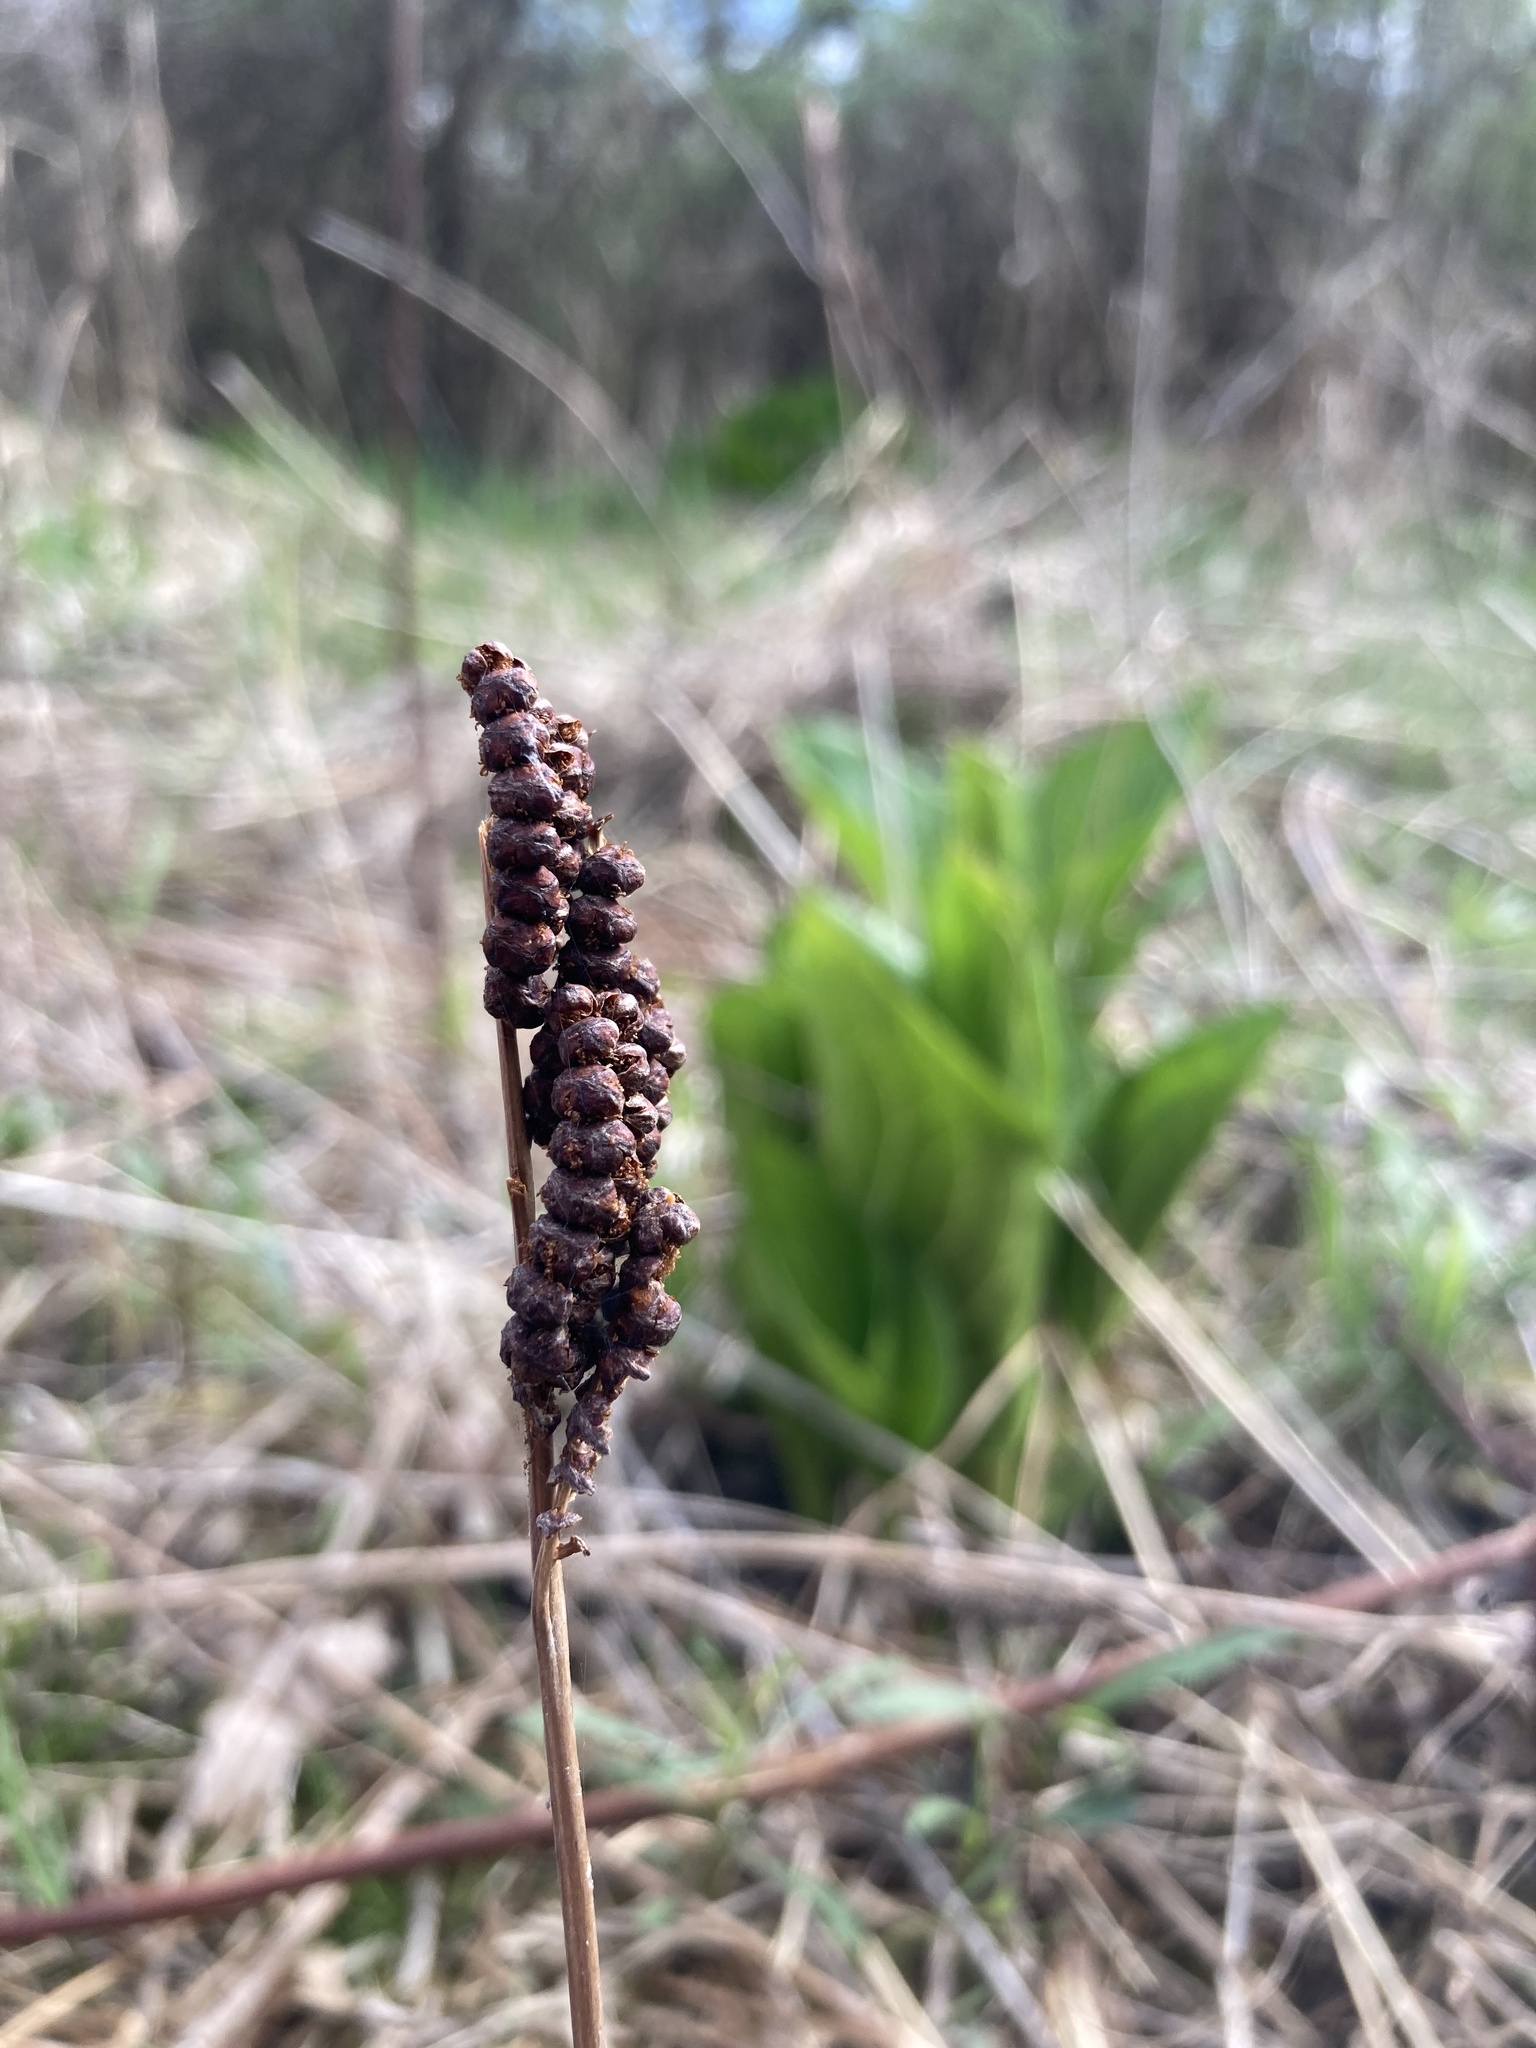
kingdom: Plantae
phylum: Tracheophyta
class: Polypodiopsida
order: Polypodiales
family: Onocleaceae
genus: Onoclea
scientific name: Onoclea sensibilis
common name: Sensitive fern
